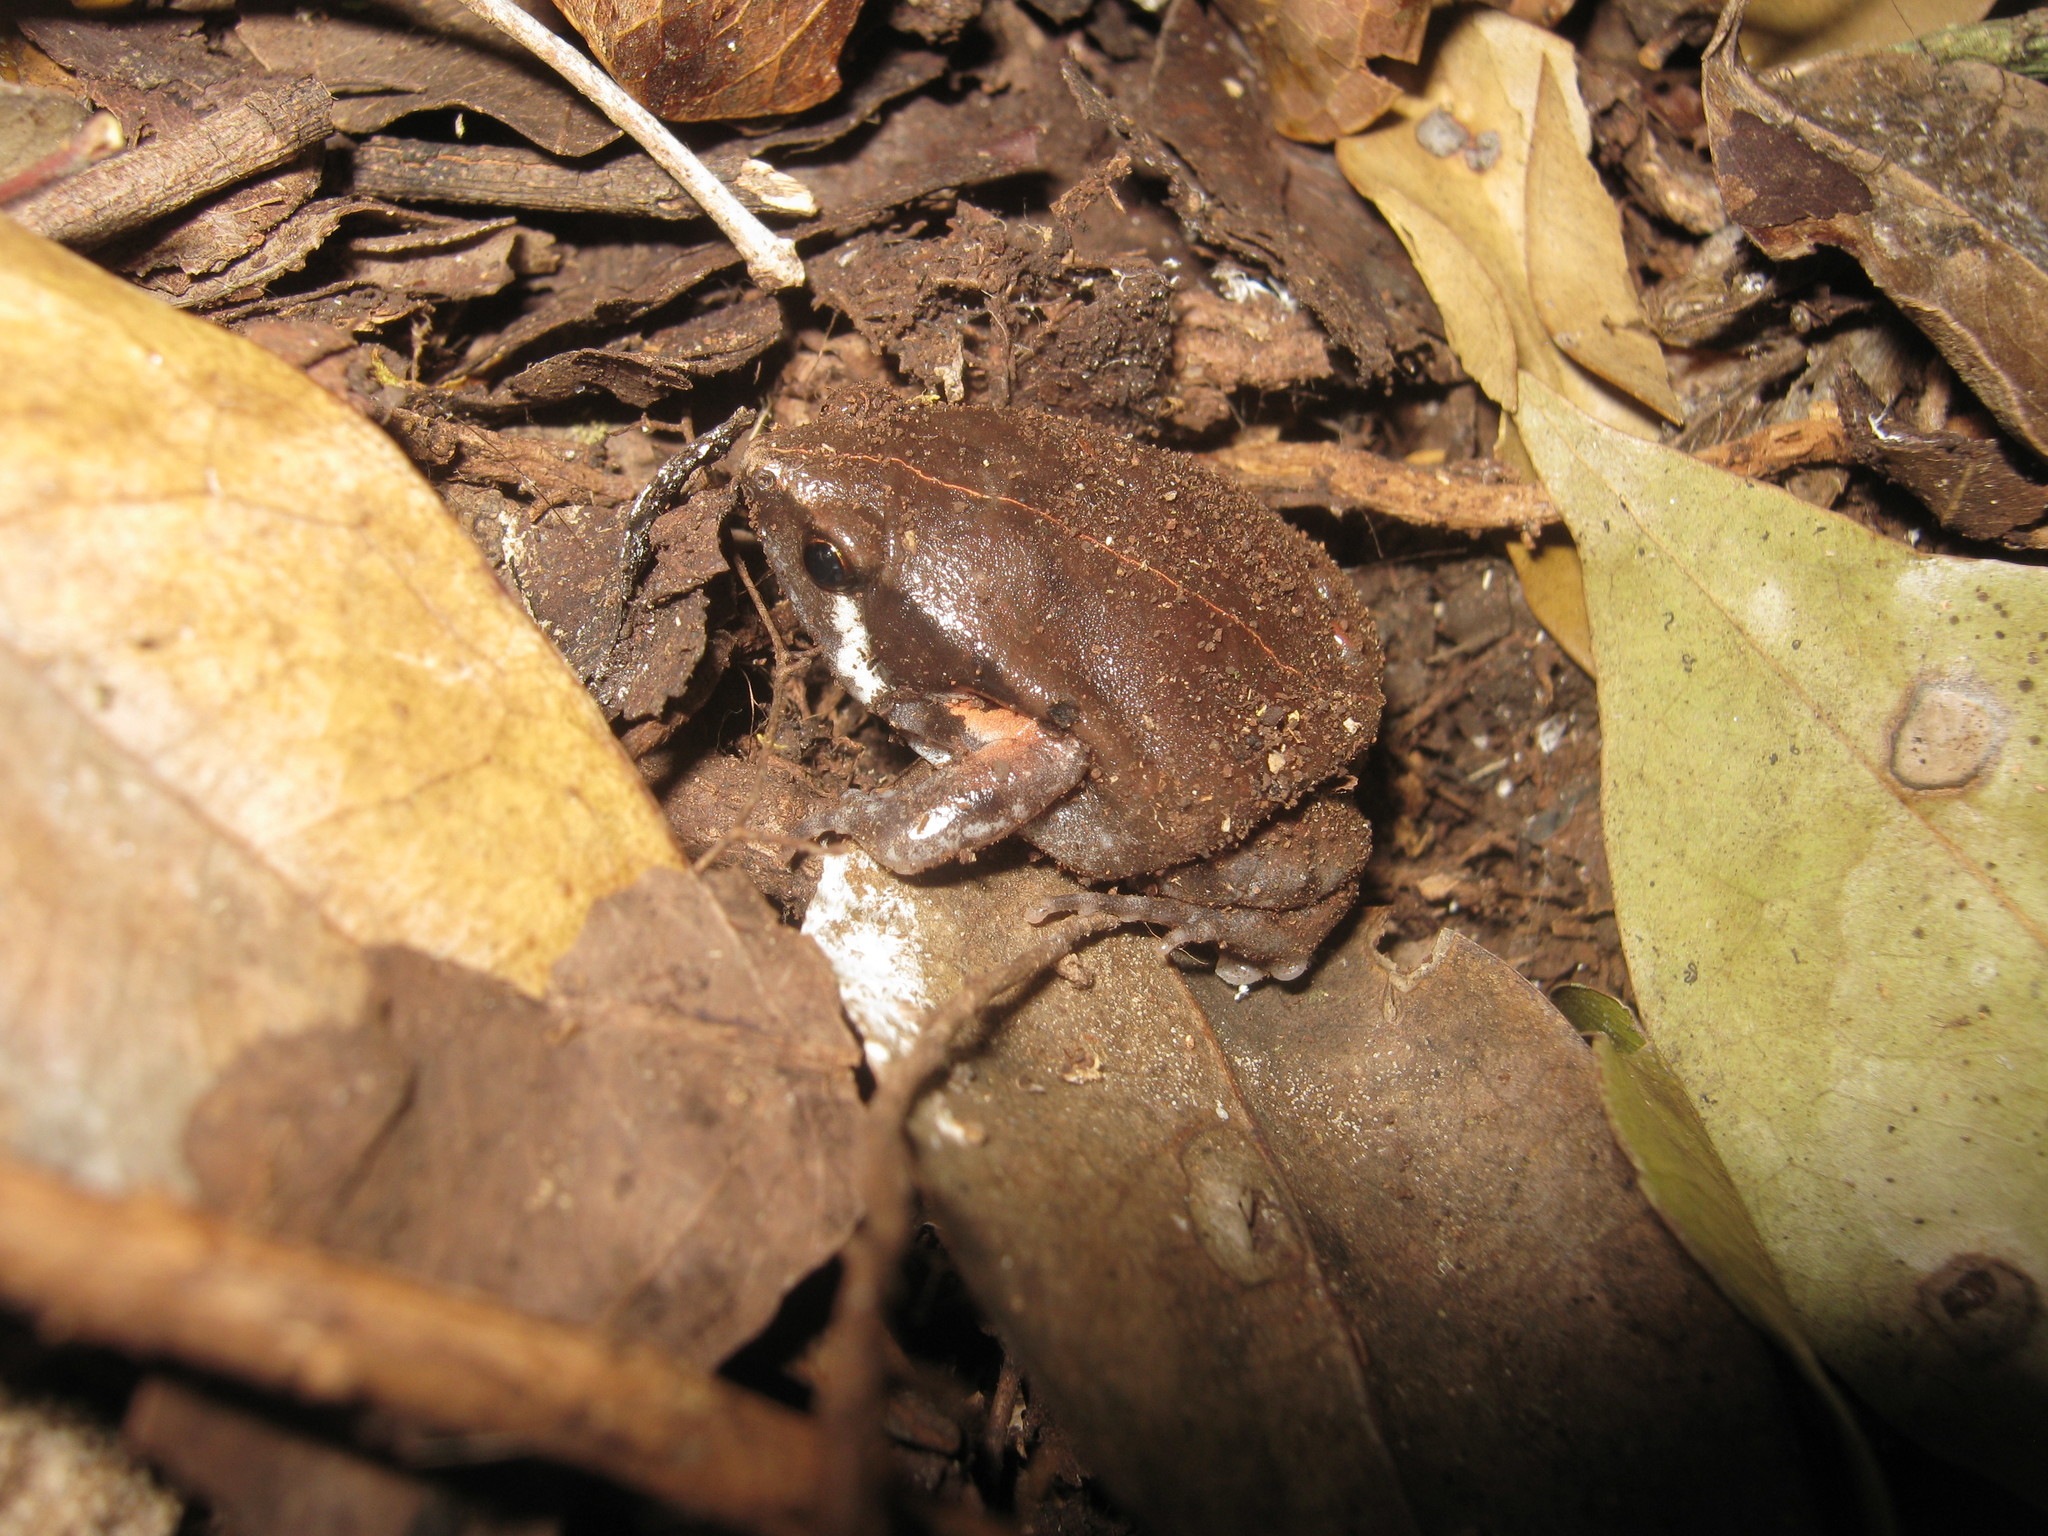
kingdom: Animalia
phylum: Chordata
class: Amphibia
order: Anura
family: Microhylidae
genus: Hypopachus
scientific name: Hypopachus variolosus
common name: Sheep frog
